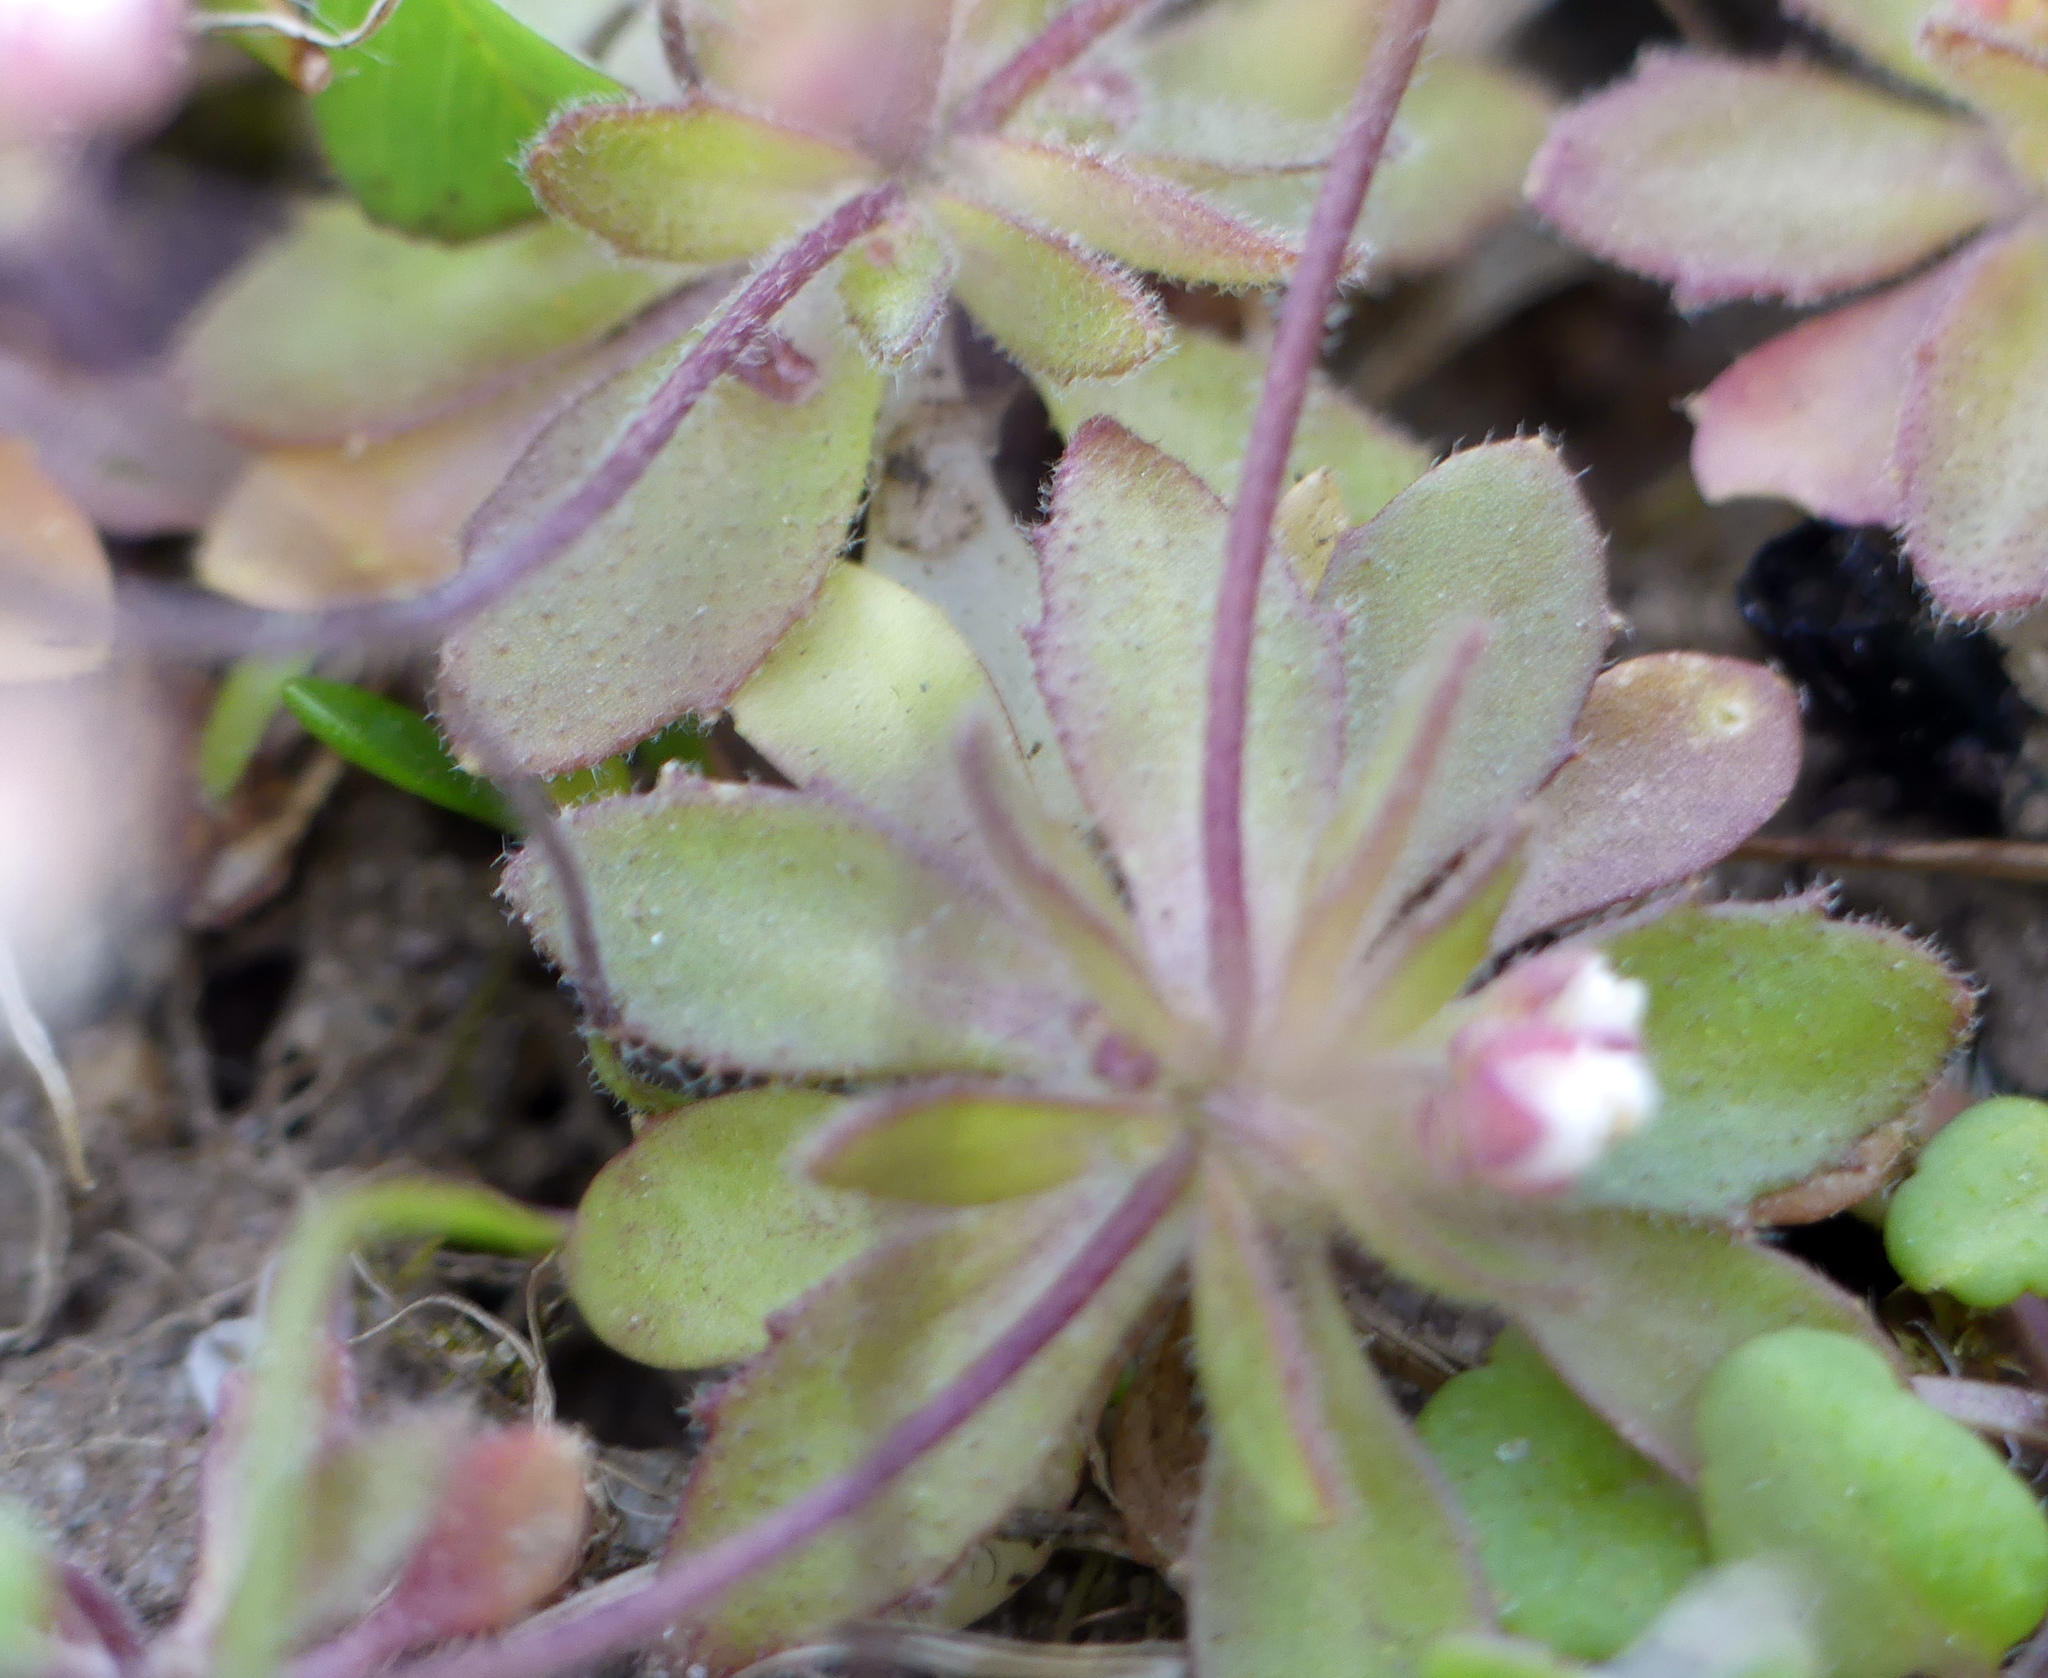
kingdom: Plantae
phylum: Tracheophyta
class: Magnoliopsida
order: Brassicales
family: Brassicaceae
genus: Draba
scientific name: Draba verna
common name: Spring draba
